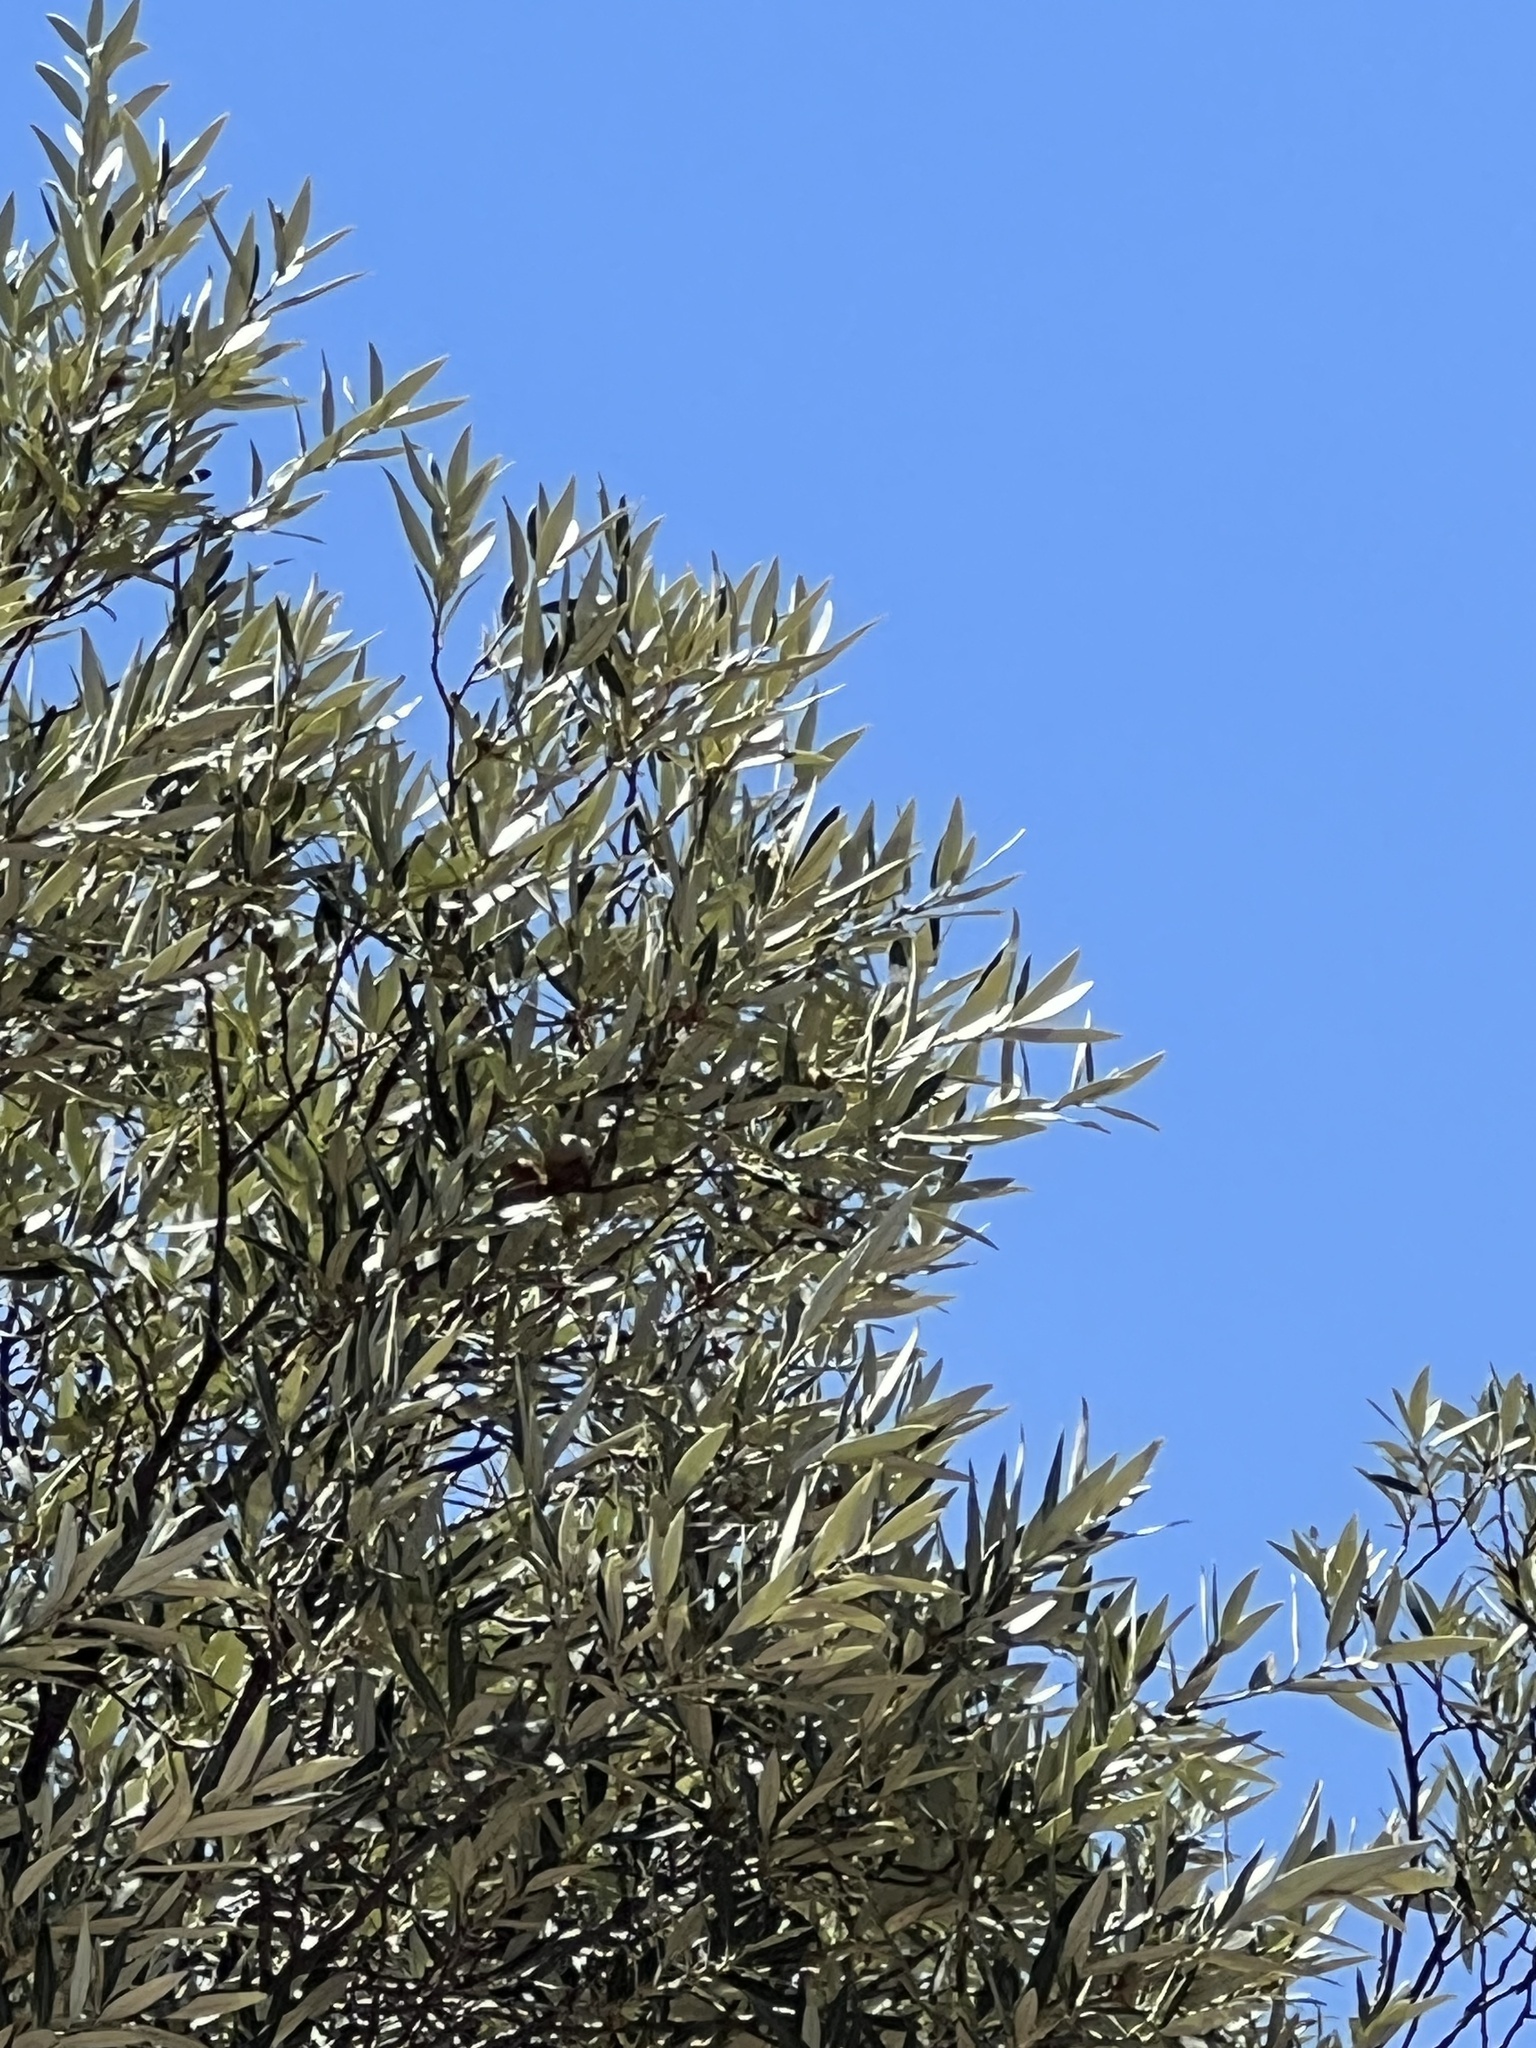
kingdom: Plantae
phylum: Tracheophyta
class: Magnoliopsida
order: Fagales
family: Fagaceae
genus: Quercus
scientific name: Quercus hypoleucoides
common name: Silverleaf oak
